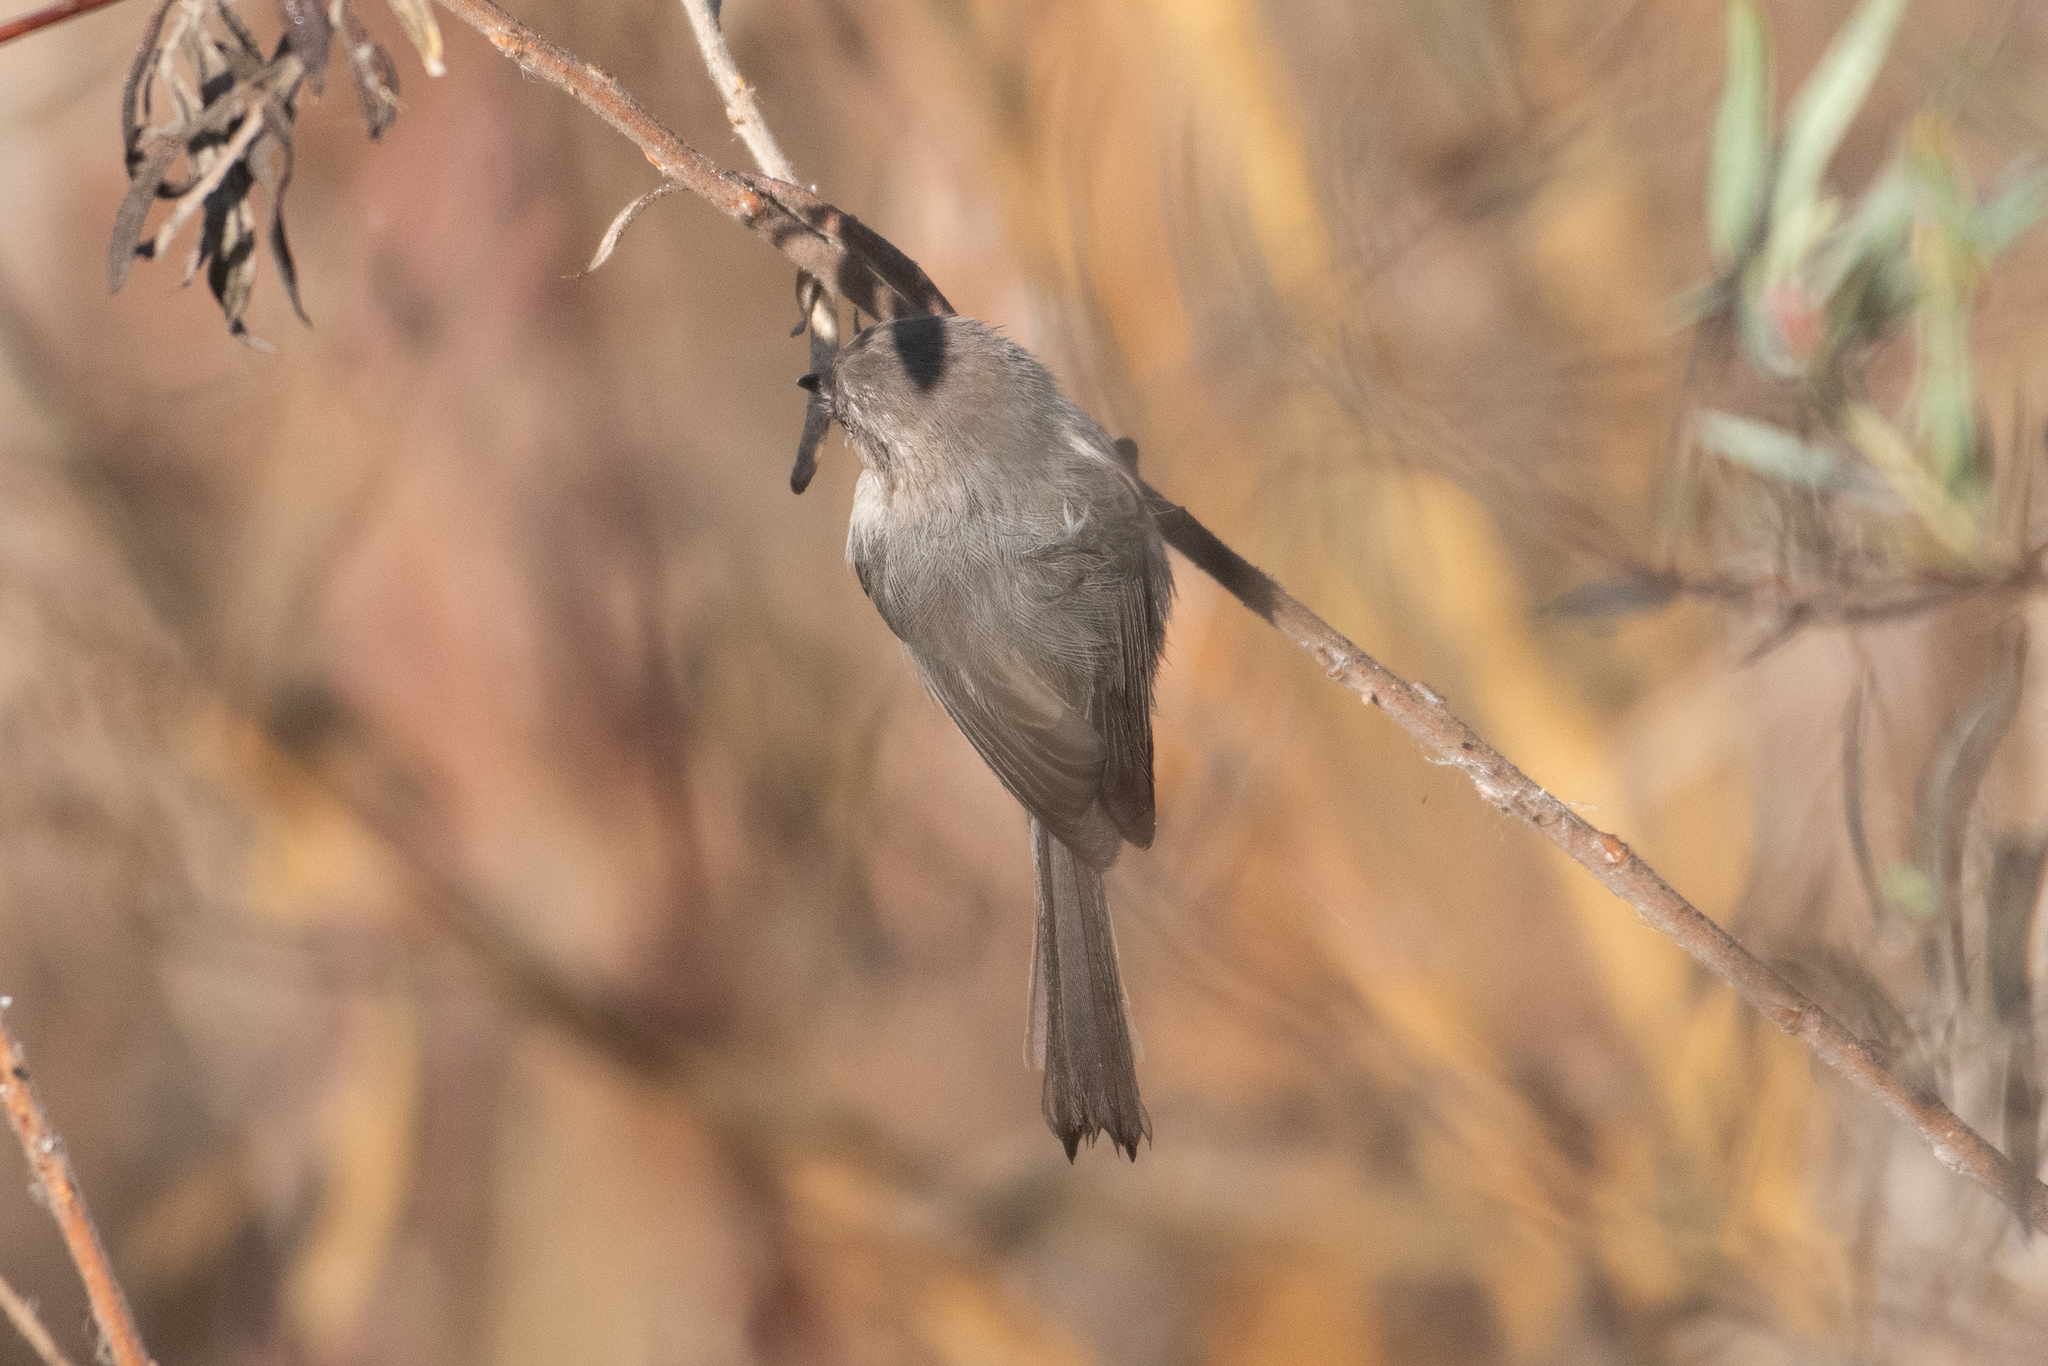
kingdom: Animalia
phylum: Chordata
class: Aves
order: Passeriformes
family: Aegithalidae
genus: Psaltriparus
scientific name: Psaltriparus minimus
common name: American bushtit
